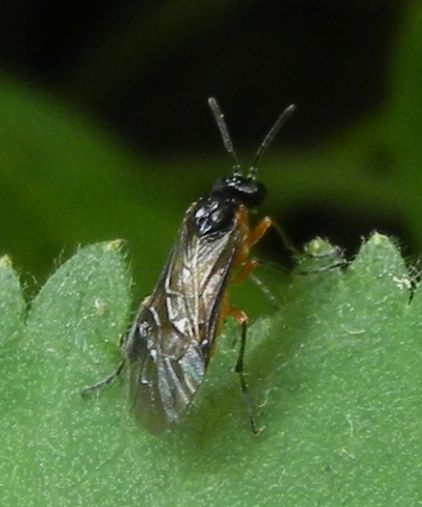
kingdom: Animalia
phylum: Arthropoda
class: Insecta
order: Hymenoptera
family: Tenthredinidae
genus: Athalia
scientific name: Athalia lugens
